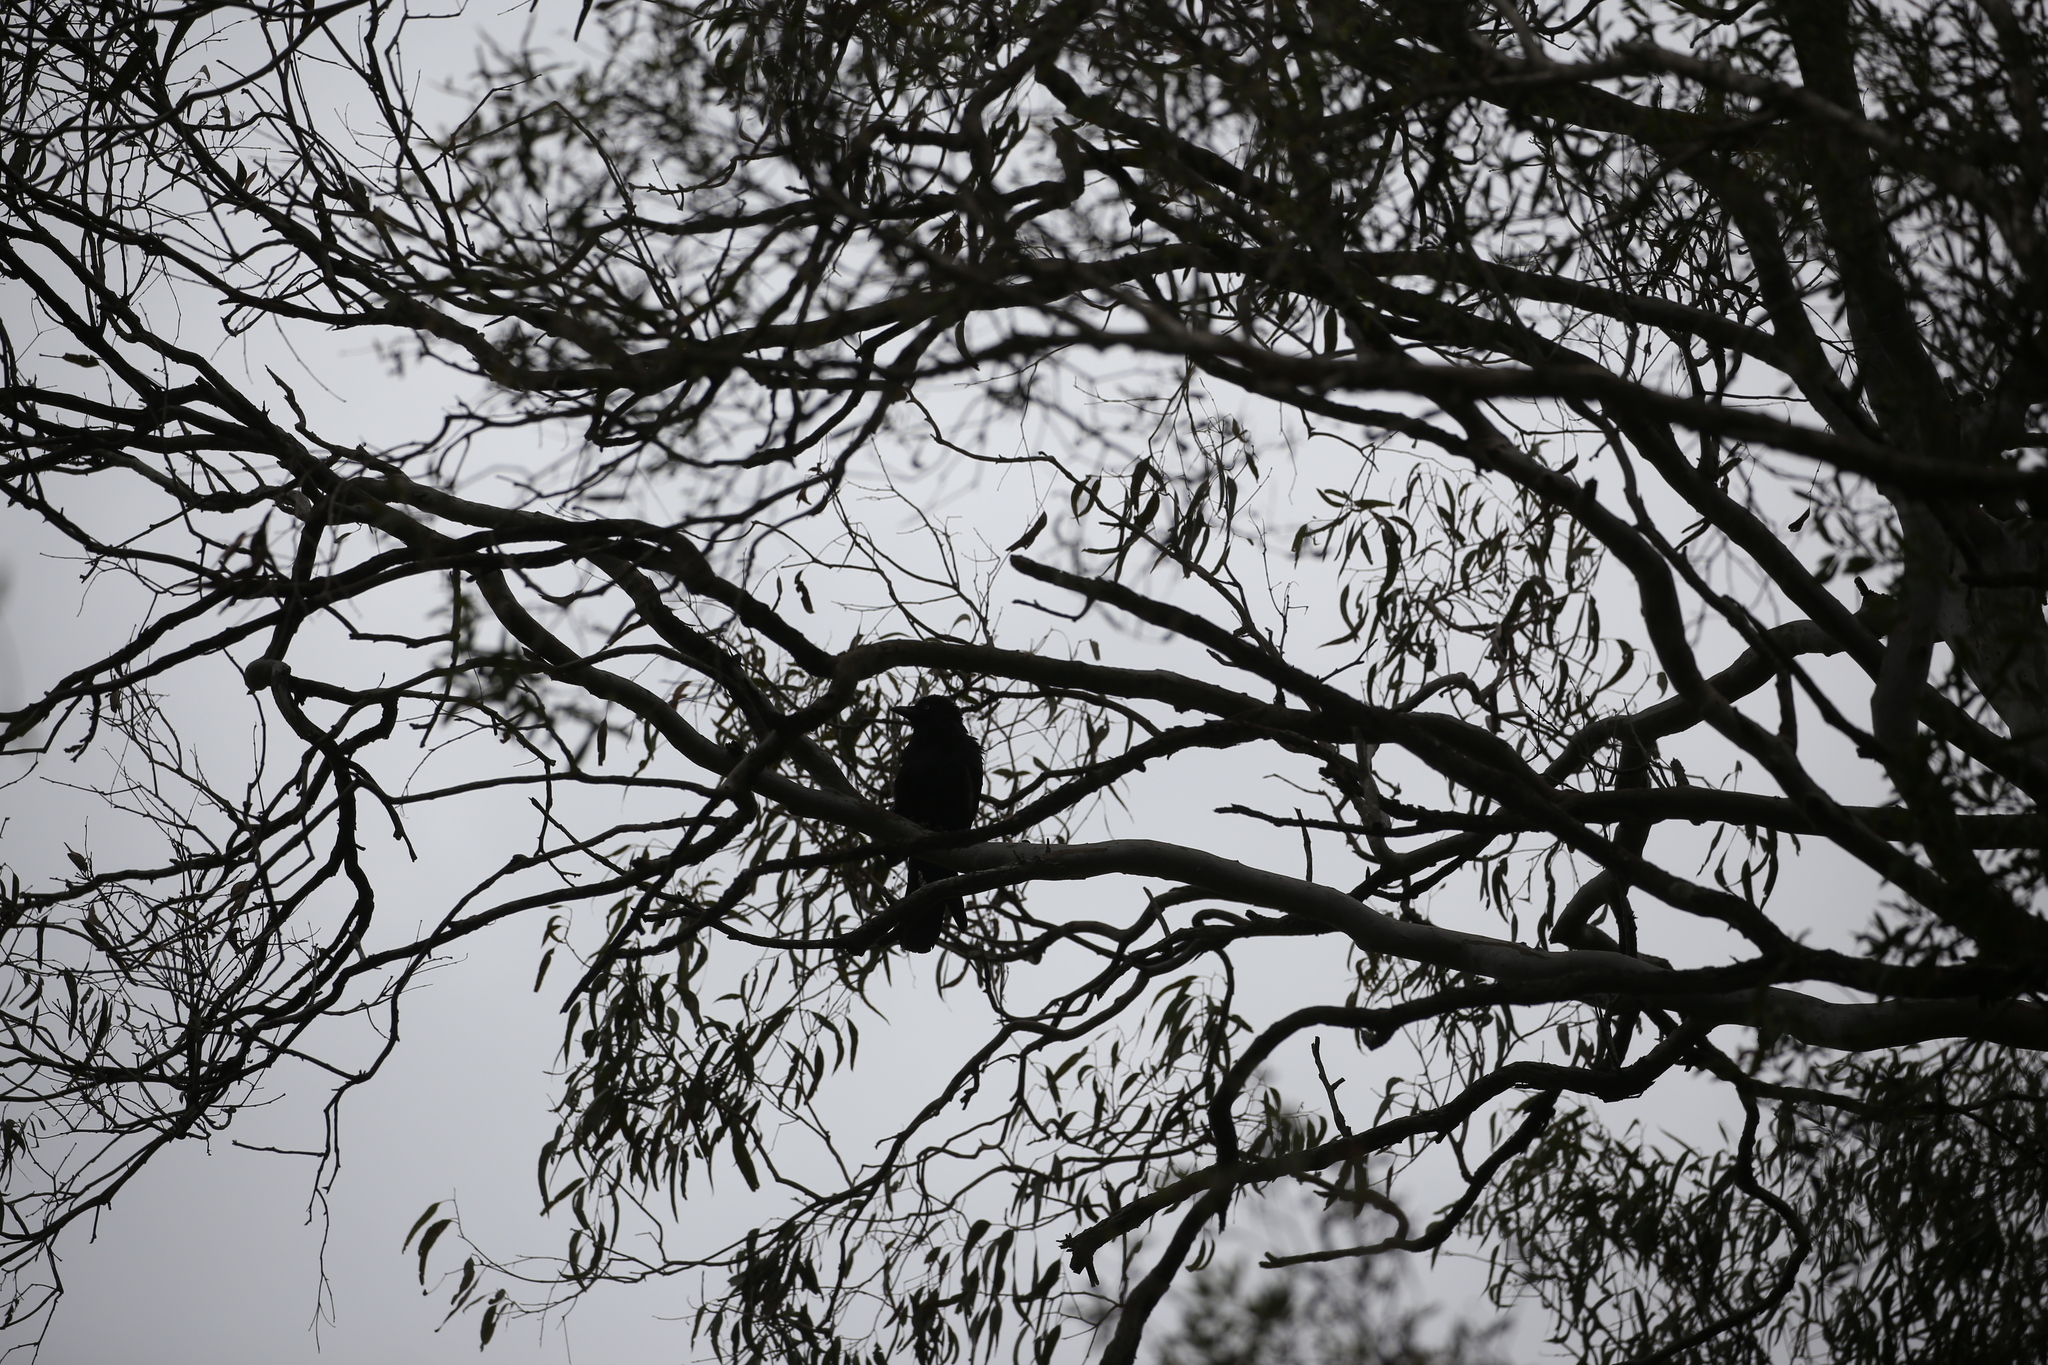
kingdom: Animalia
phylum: Chordata
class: Aves
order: Passeriformes
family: Corvidae
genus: Corvus
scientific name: Corvus orru
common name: Torresian crow
